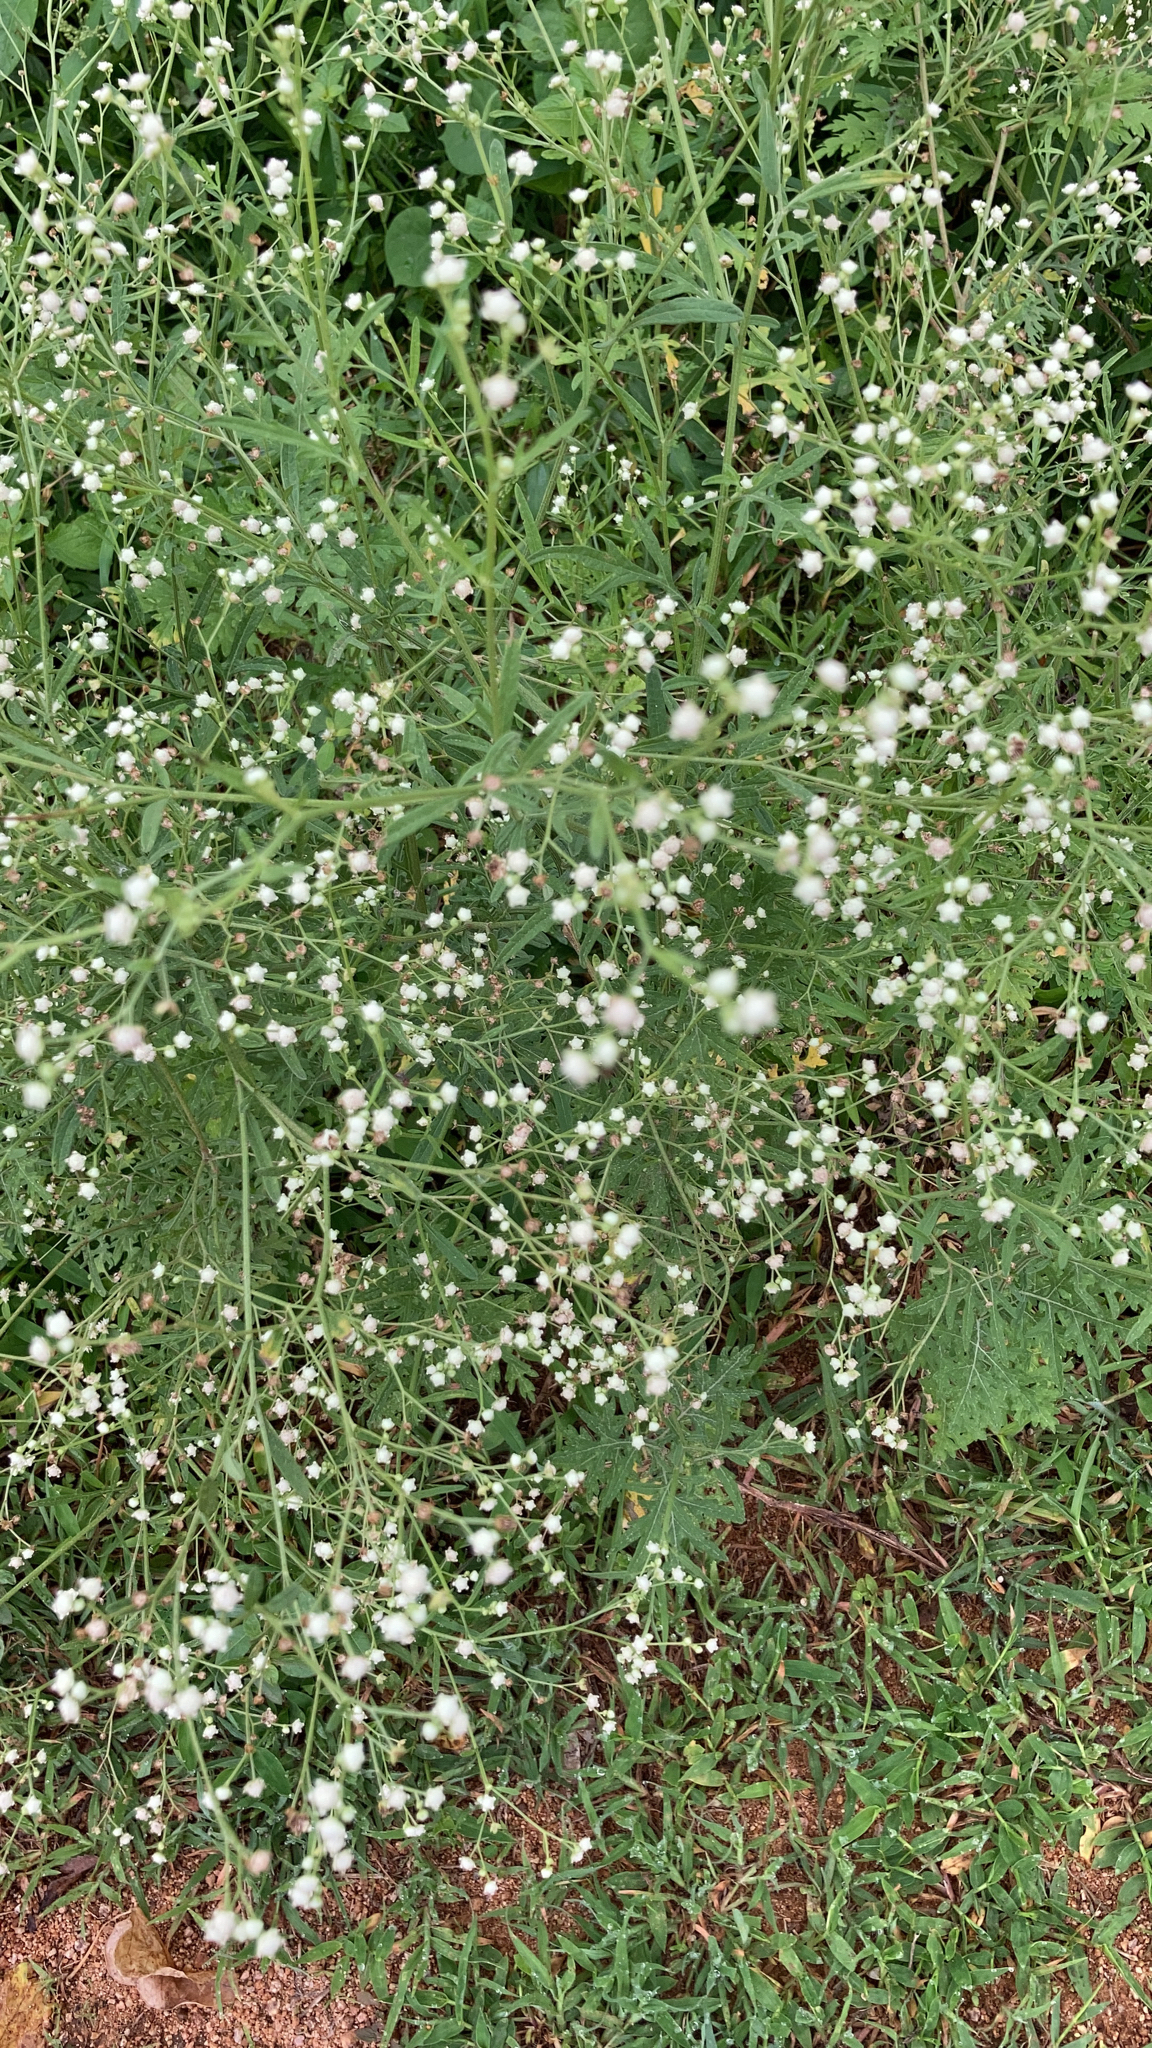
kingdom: Plantae
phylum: Tracheophyta
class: Magnoliopsida
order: Asterales
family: Asteraceae
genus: Parthenium
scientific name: Parthenium hysterophorus
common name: Santa maria feverfew
